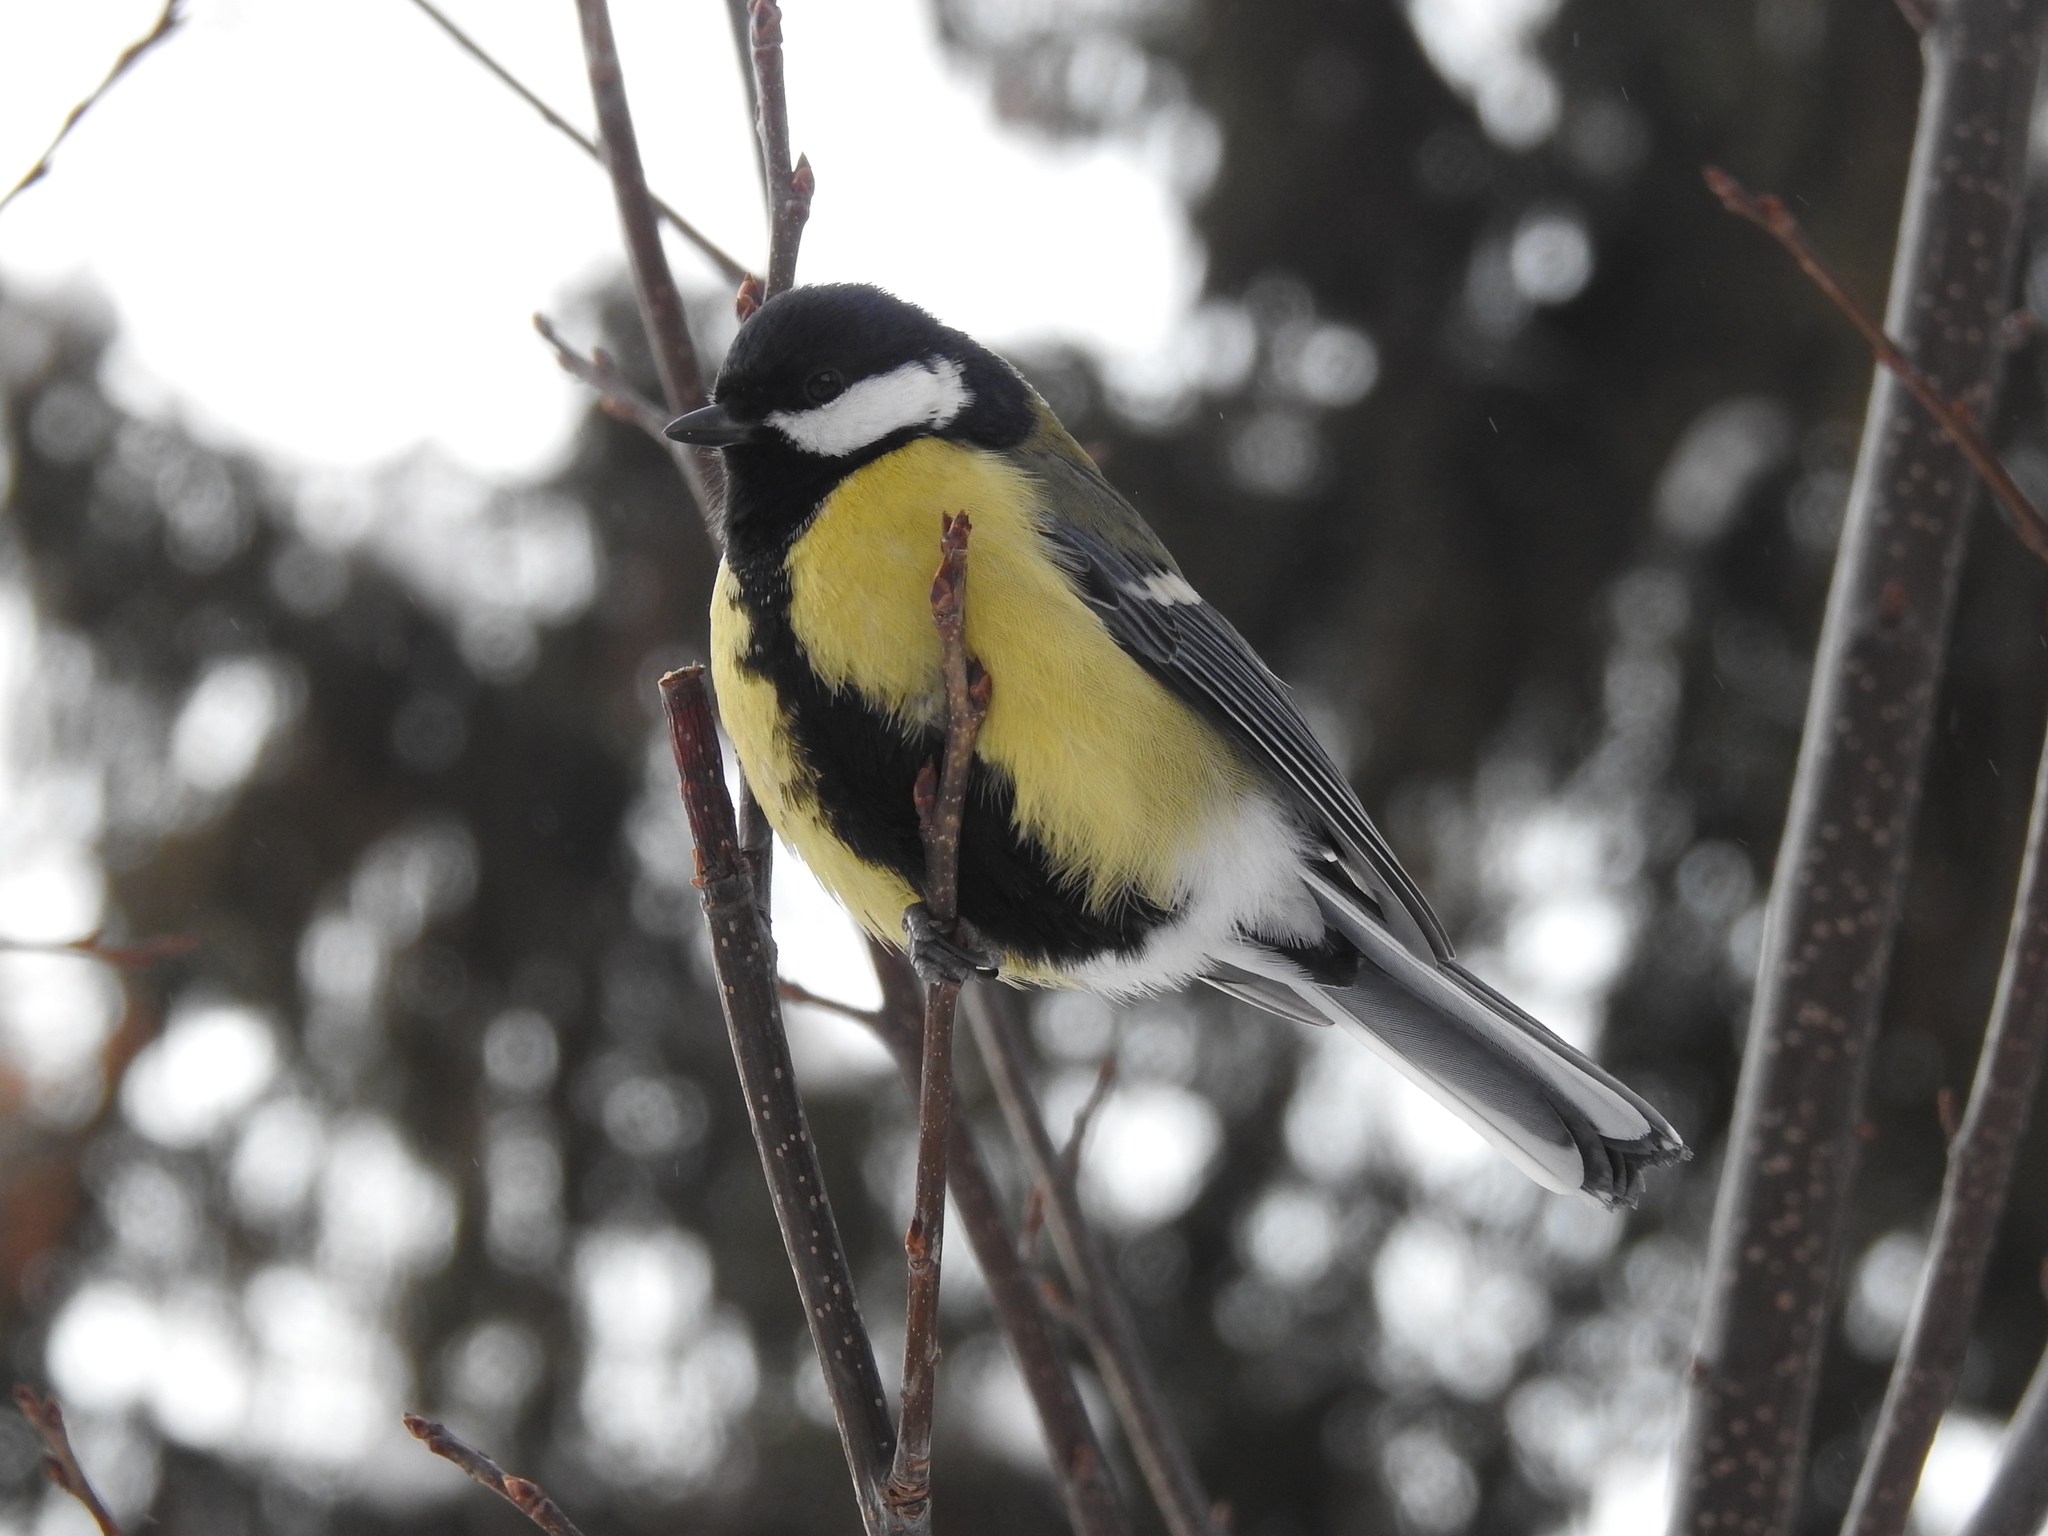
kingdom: Animalia
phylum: Chordata
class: Aves
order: Passeriformes
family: Paridae
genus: Parus
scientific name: Parus major
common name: Great tit
